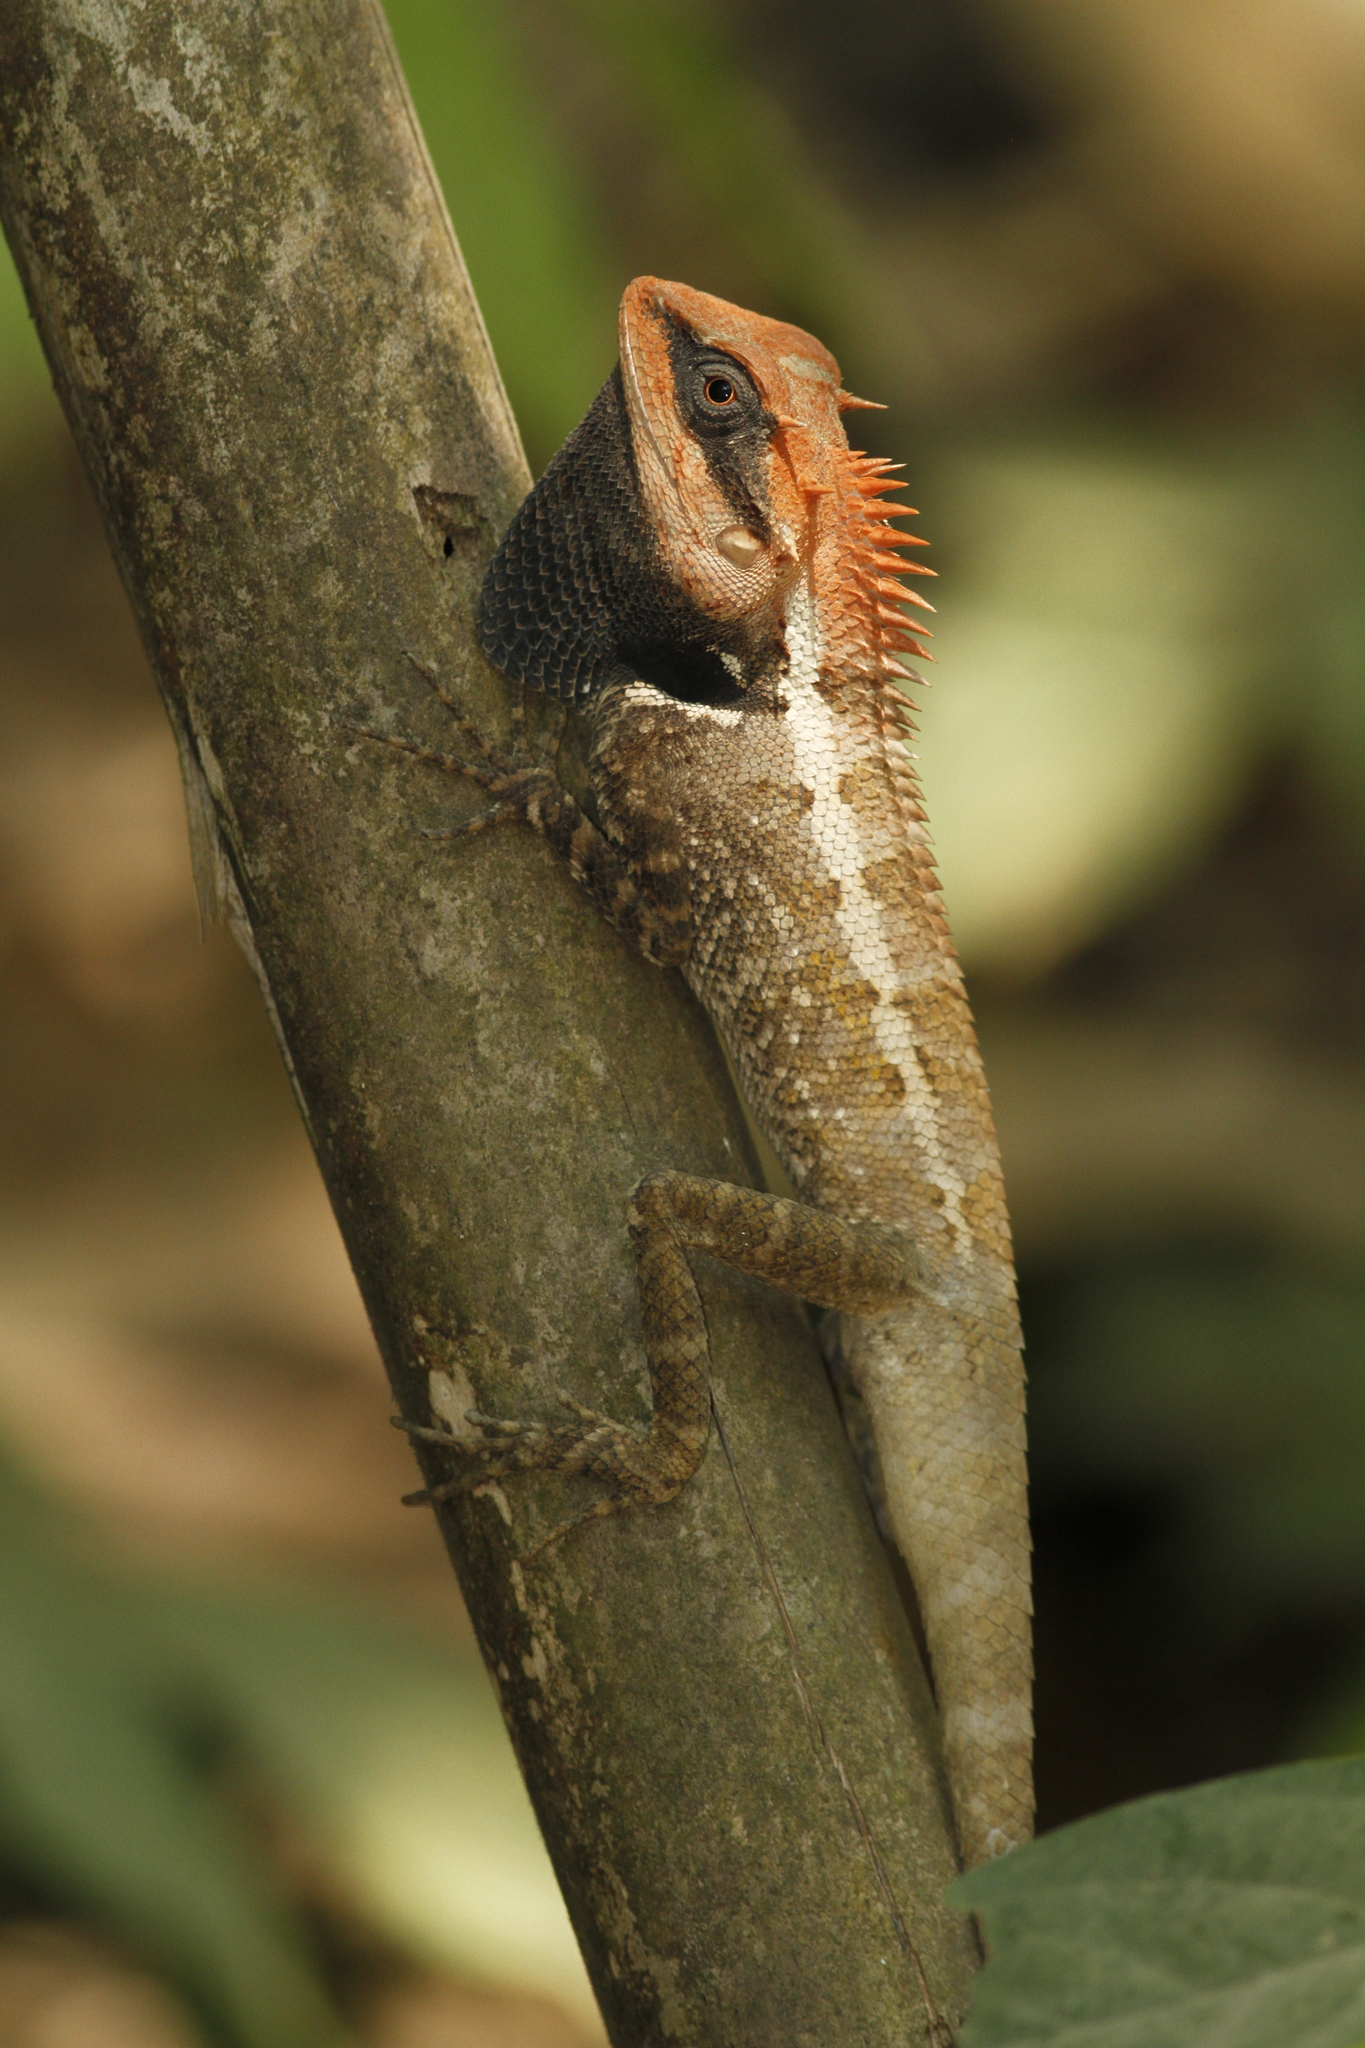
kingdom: Animalia
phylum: Chordata
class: Squamata
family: Agamidae
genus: Calotes
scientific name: Calotes emma
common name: Thailand bloodsucker
